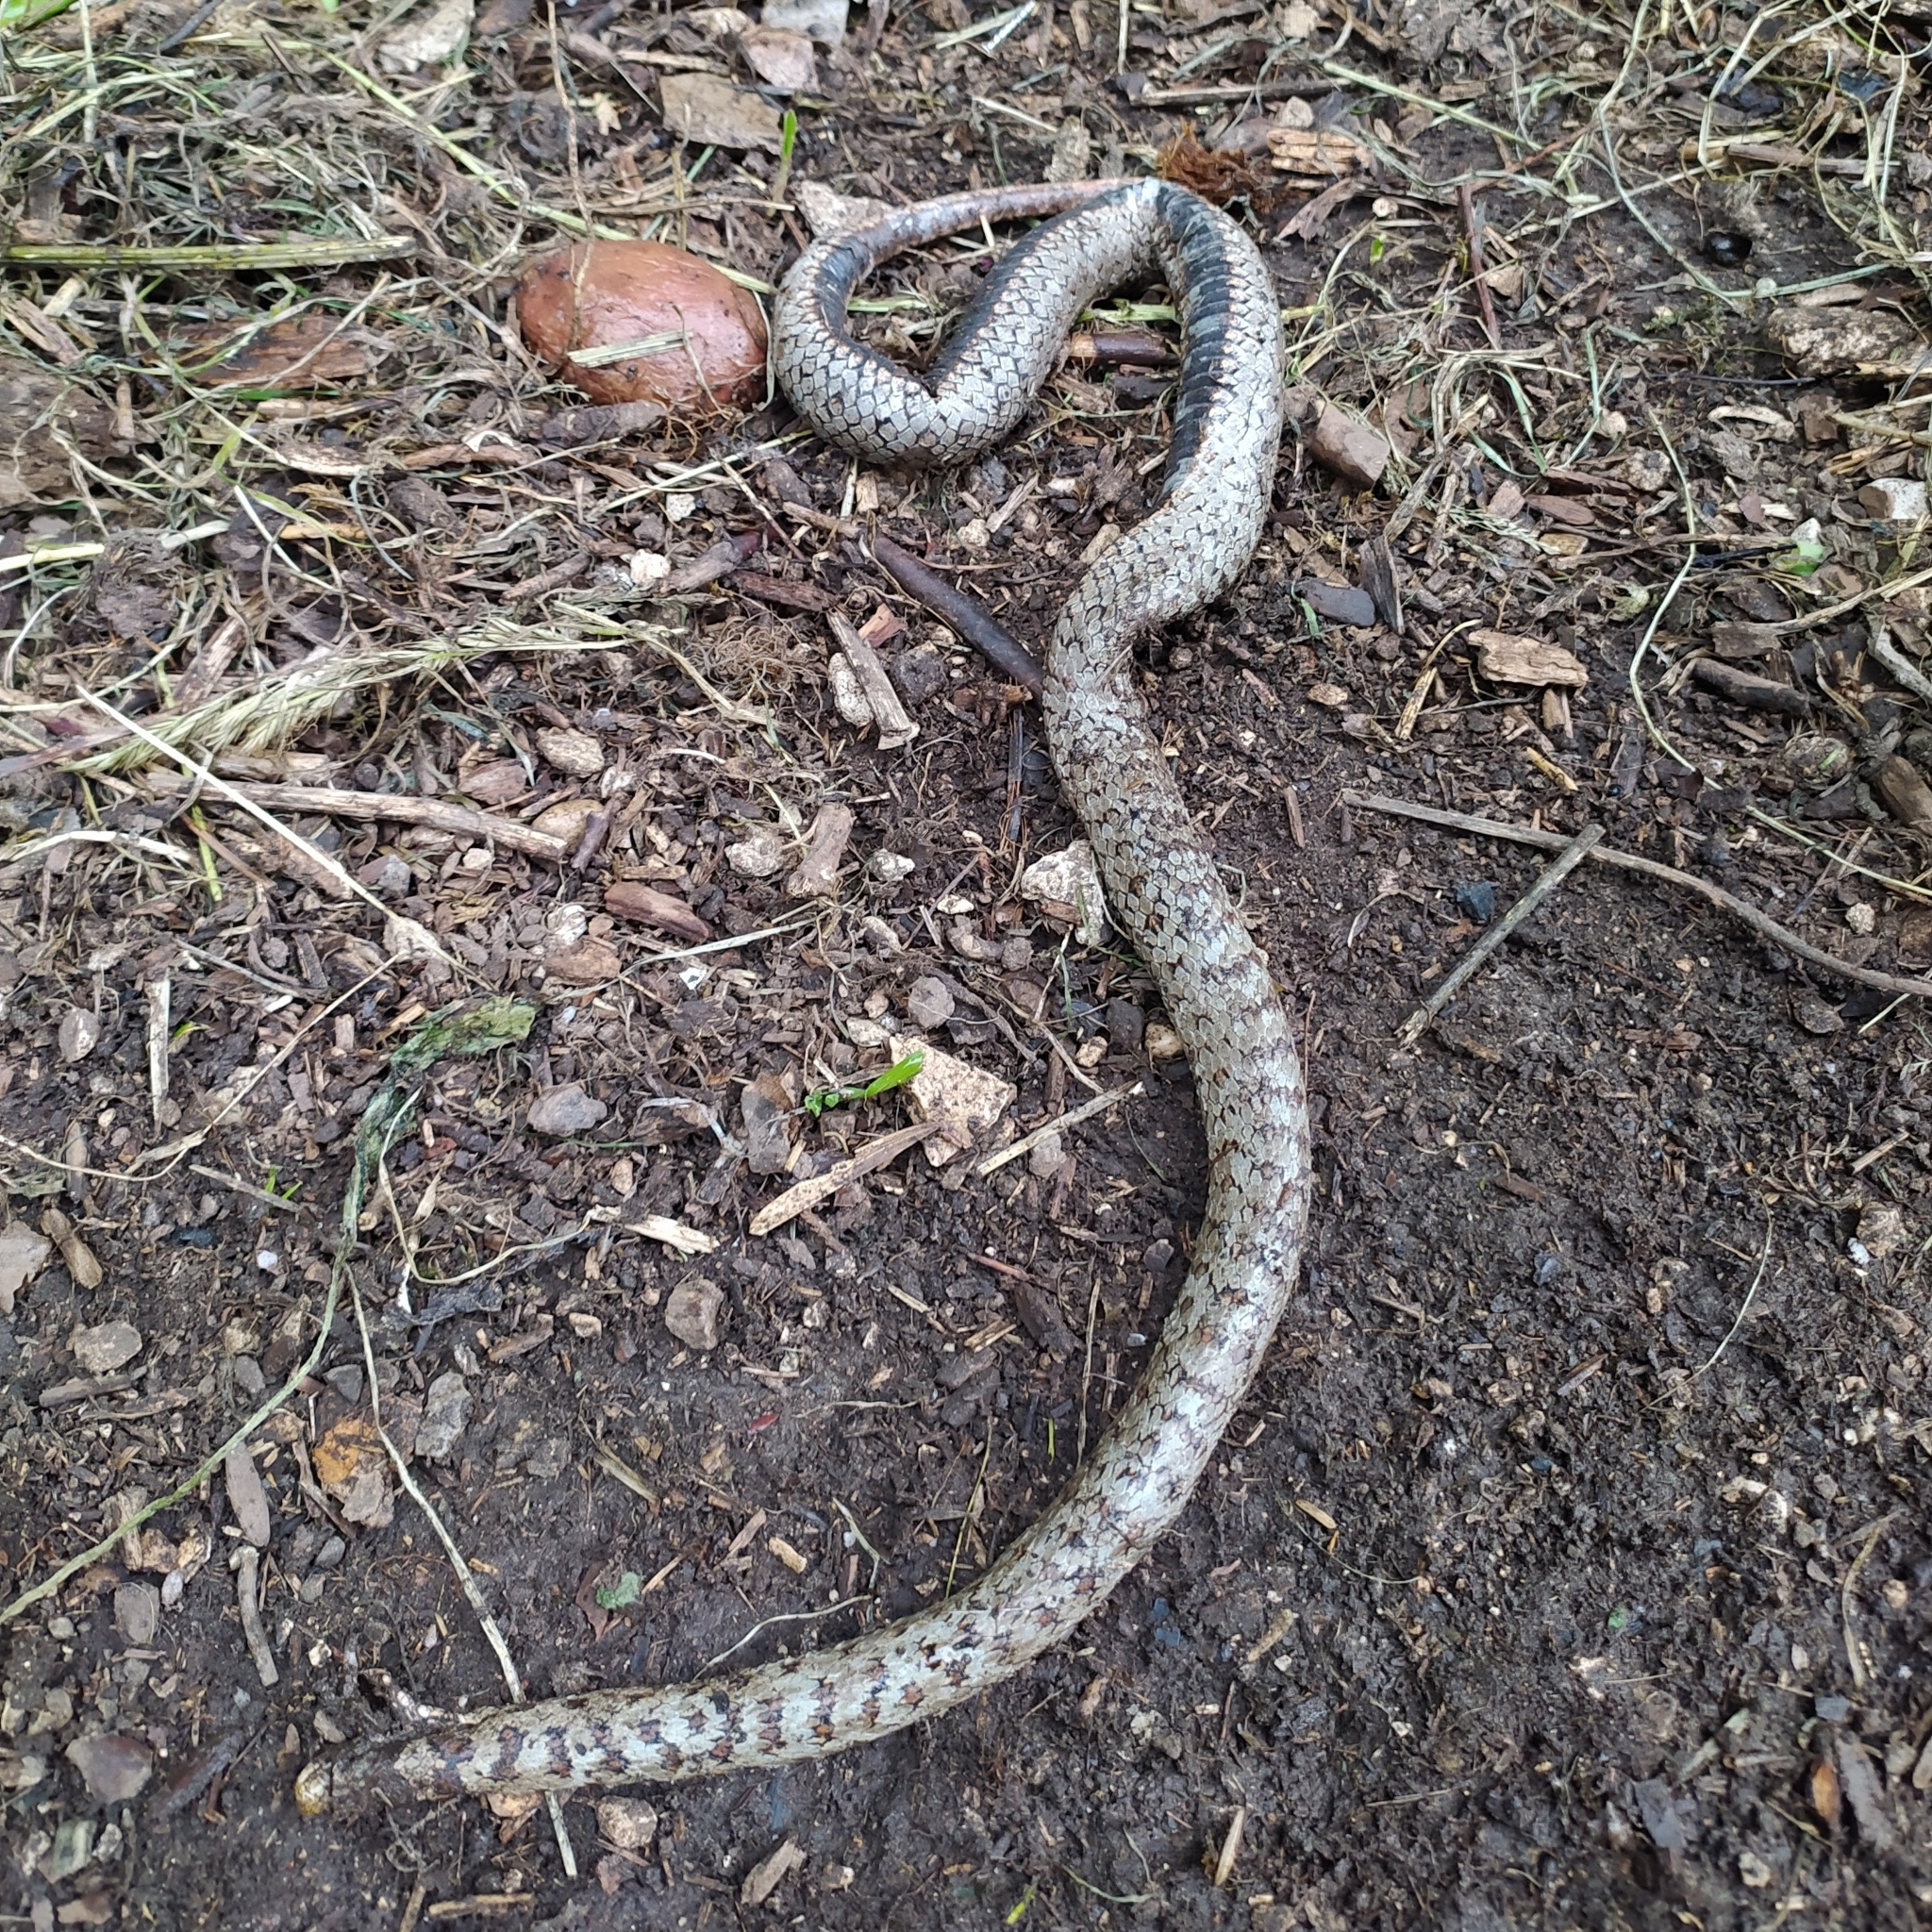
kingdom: Animalia
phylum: Chordata
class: Squamata
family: Colubridae
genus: Coronella
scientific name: Coronella austriaca
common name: Smooth snake
